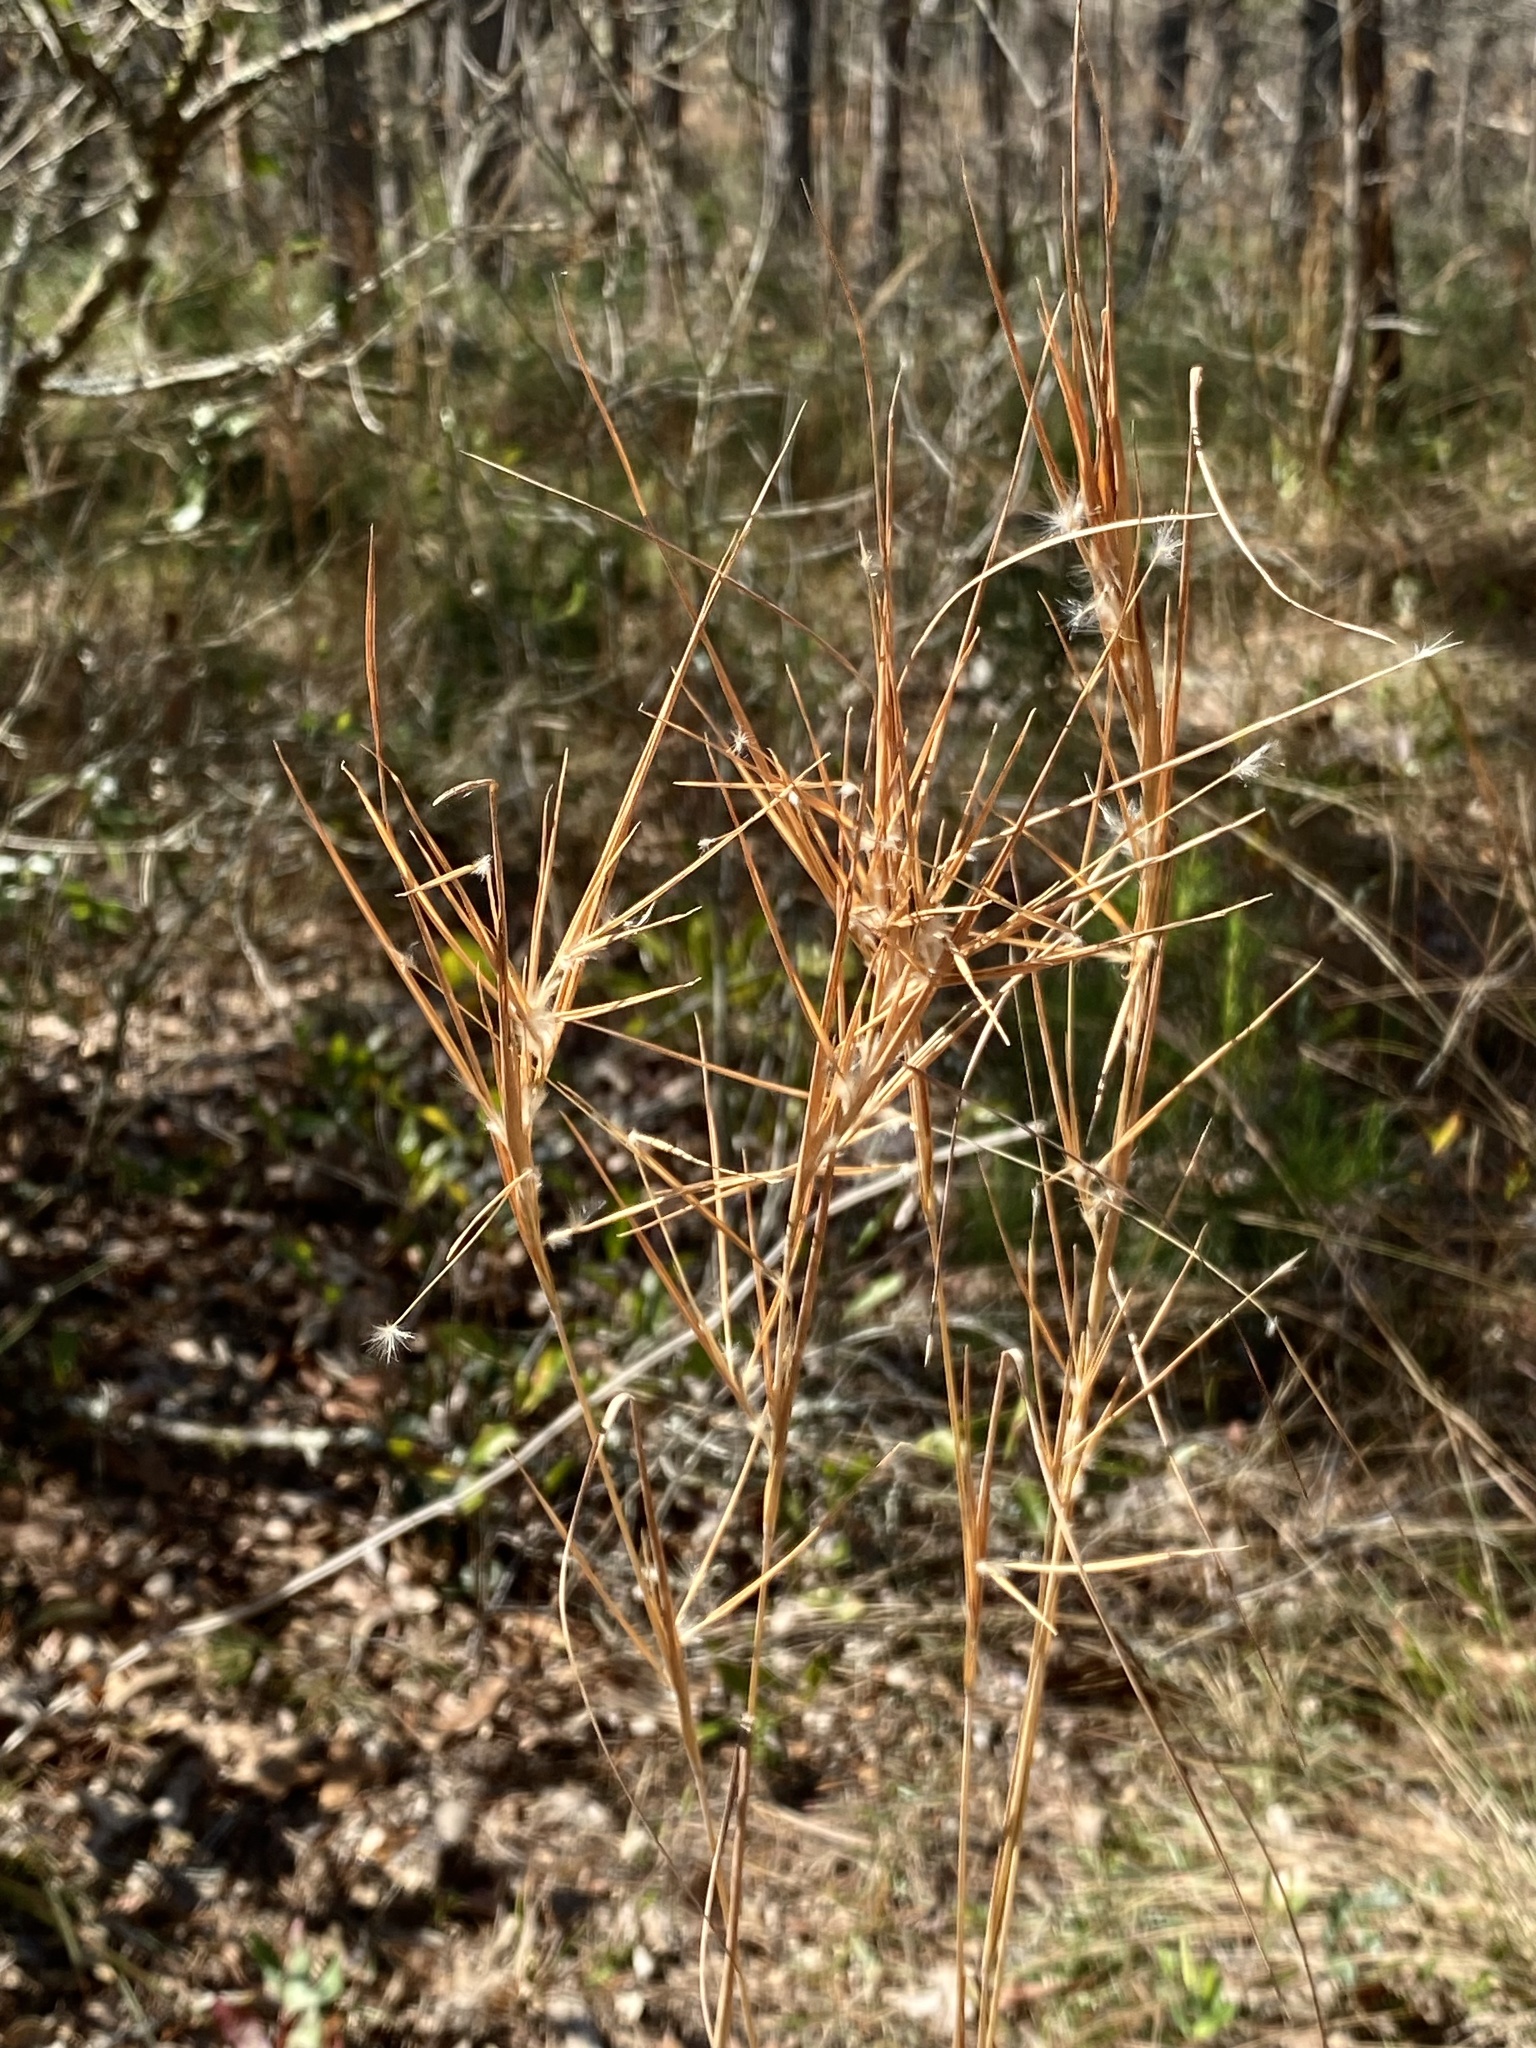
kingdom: Plantae
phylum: Tracheophyta
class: Liliopsida
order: Poales
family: Poaceae
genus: Andropogon
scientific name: Andropogon gyrans
